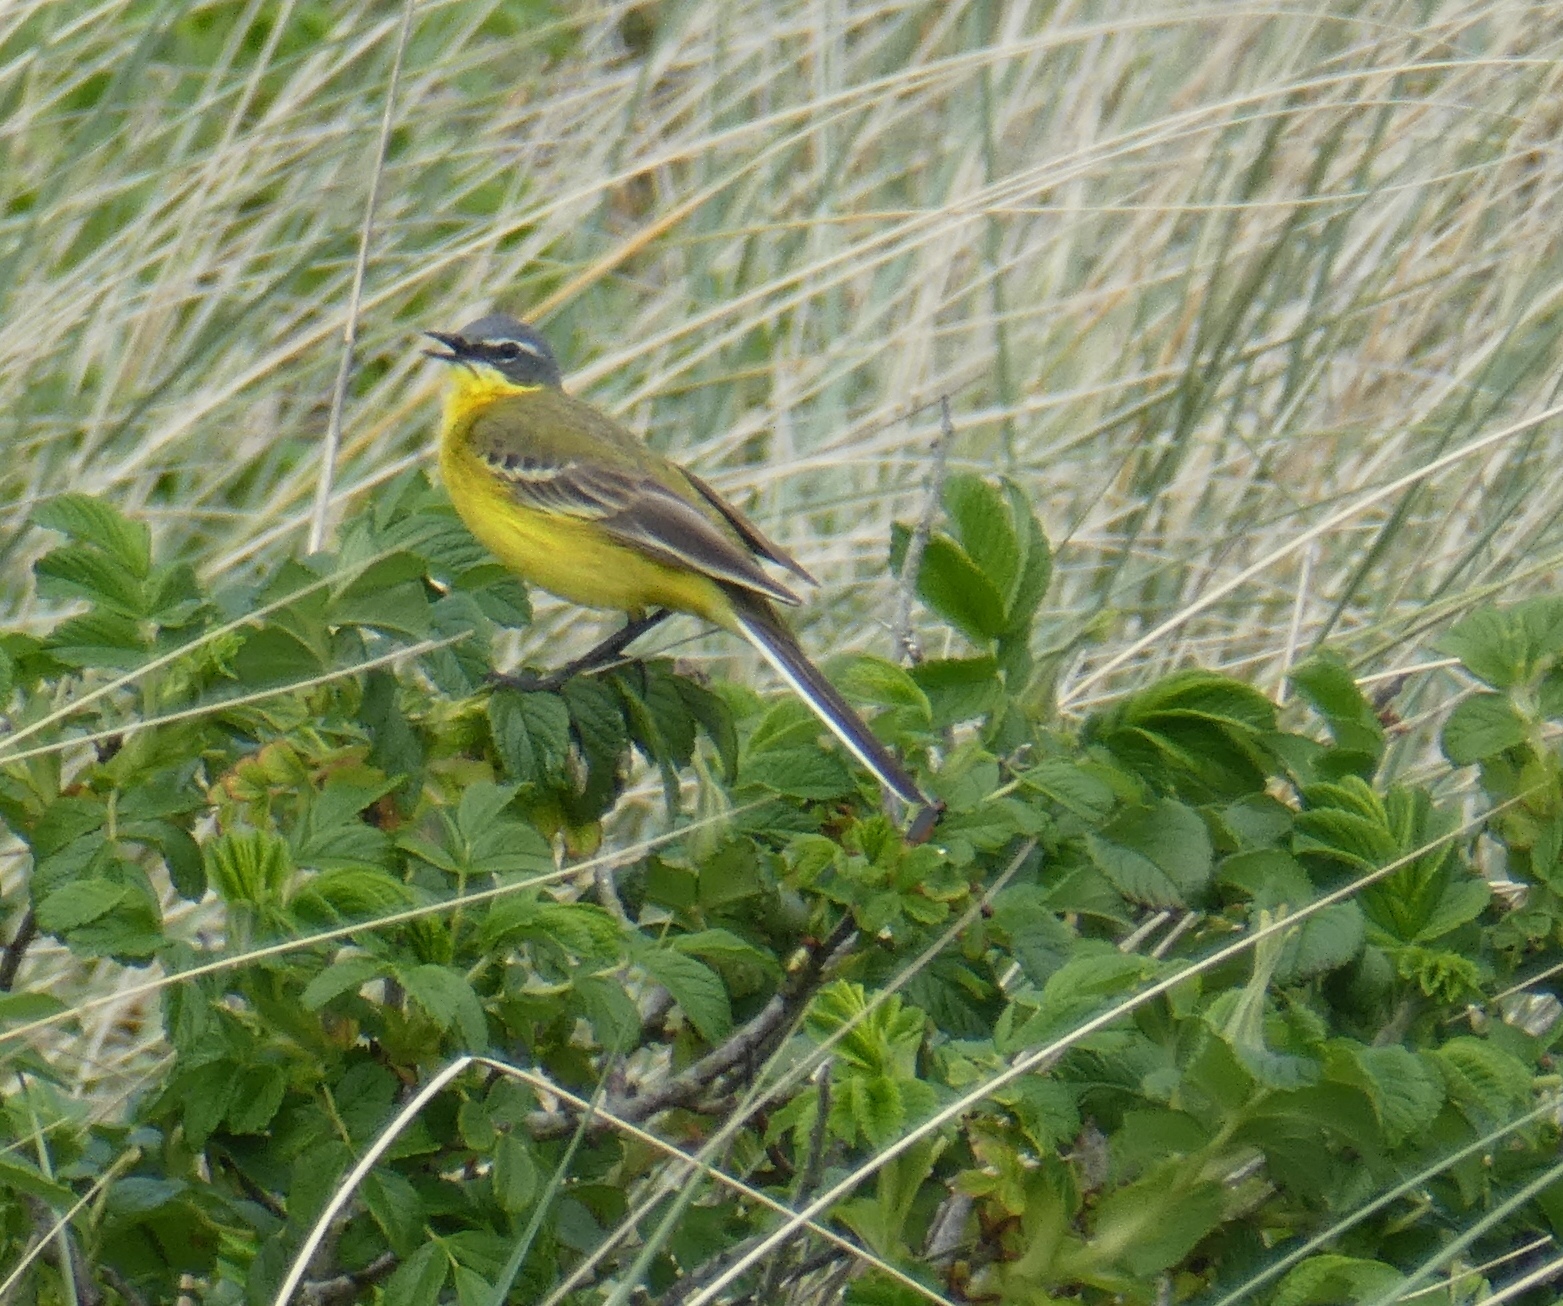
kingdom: Animalia
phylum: Chordata
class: Aves
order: Passeriformes
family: Motacillidae
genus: Motacilla
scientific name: Motacilla flava
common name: Western yellow wagtail
